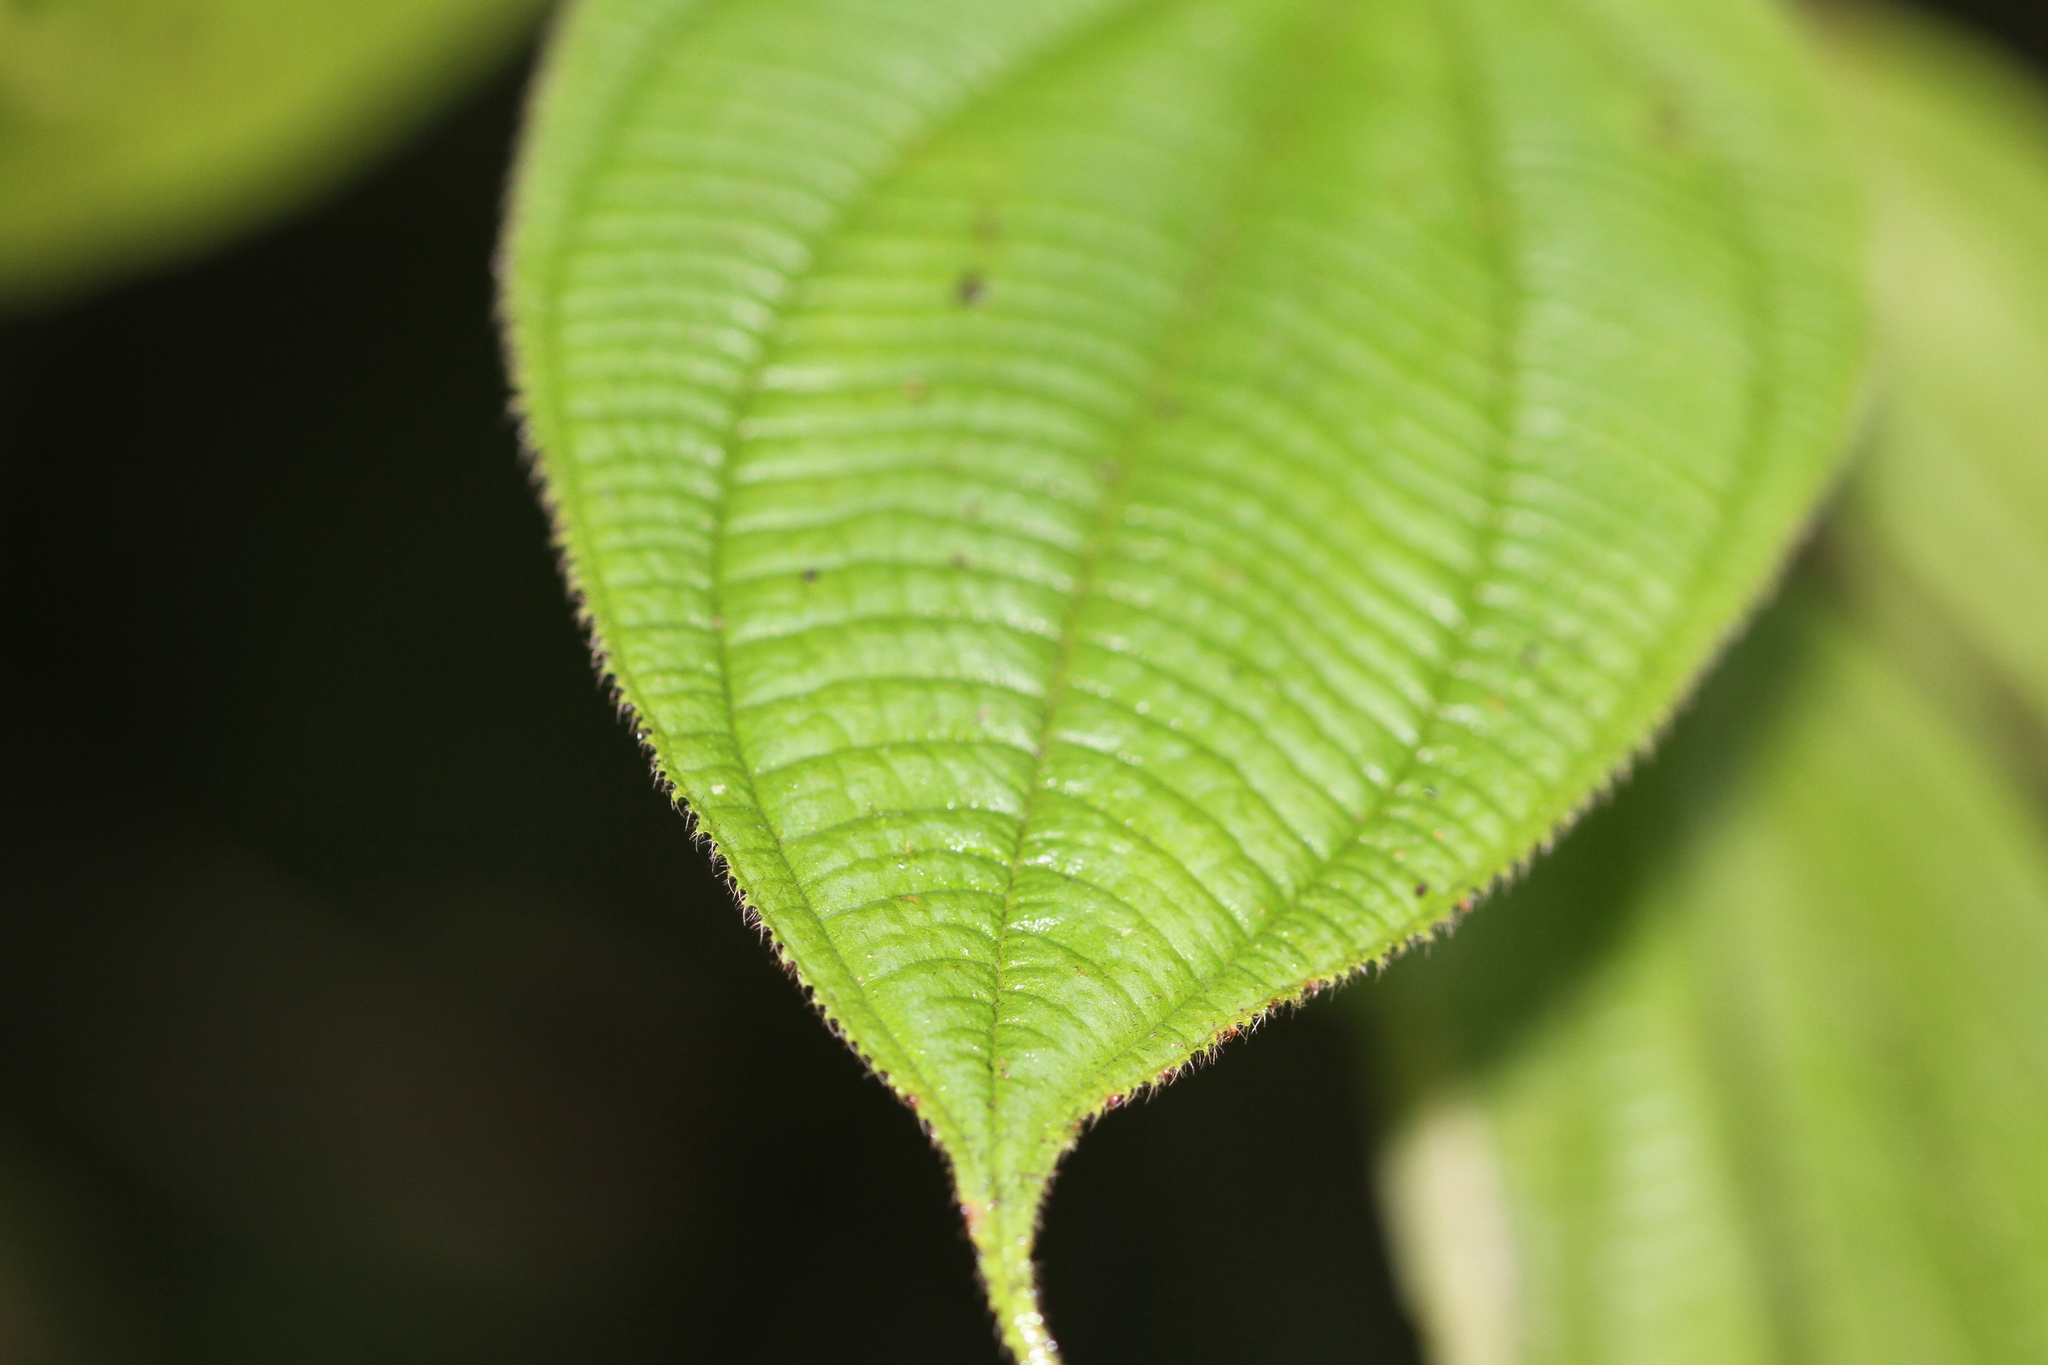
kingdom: Plantae
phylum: Tracheophyta
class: Magnoliopsida
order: Myrtales
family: Melastomataceae
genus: Miconia
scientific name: Miconia silvicola
